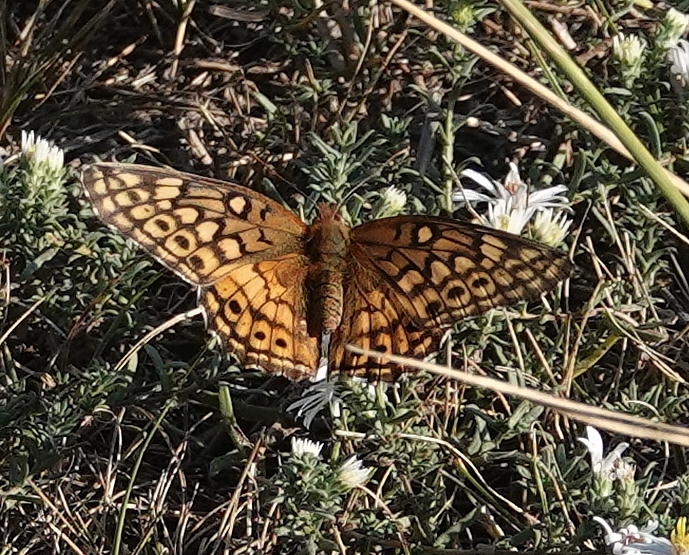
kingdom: Animalia
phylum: Arthropoda
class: Insecta
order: Lepidoptera
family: Nymphalidae
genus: Euptoieta
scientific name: Euptoieta claudia
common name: Variegated fritillary
